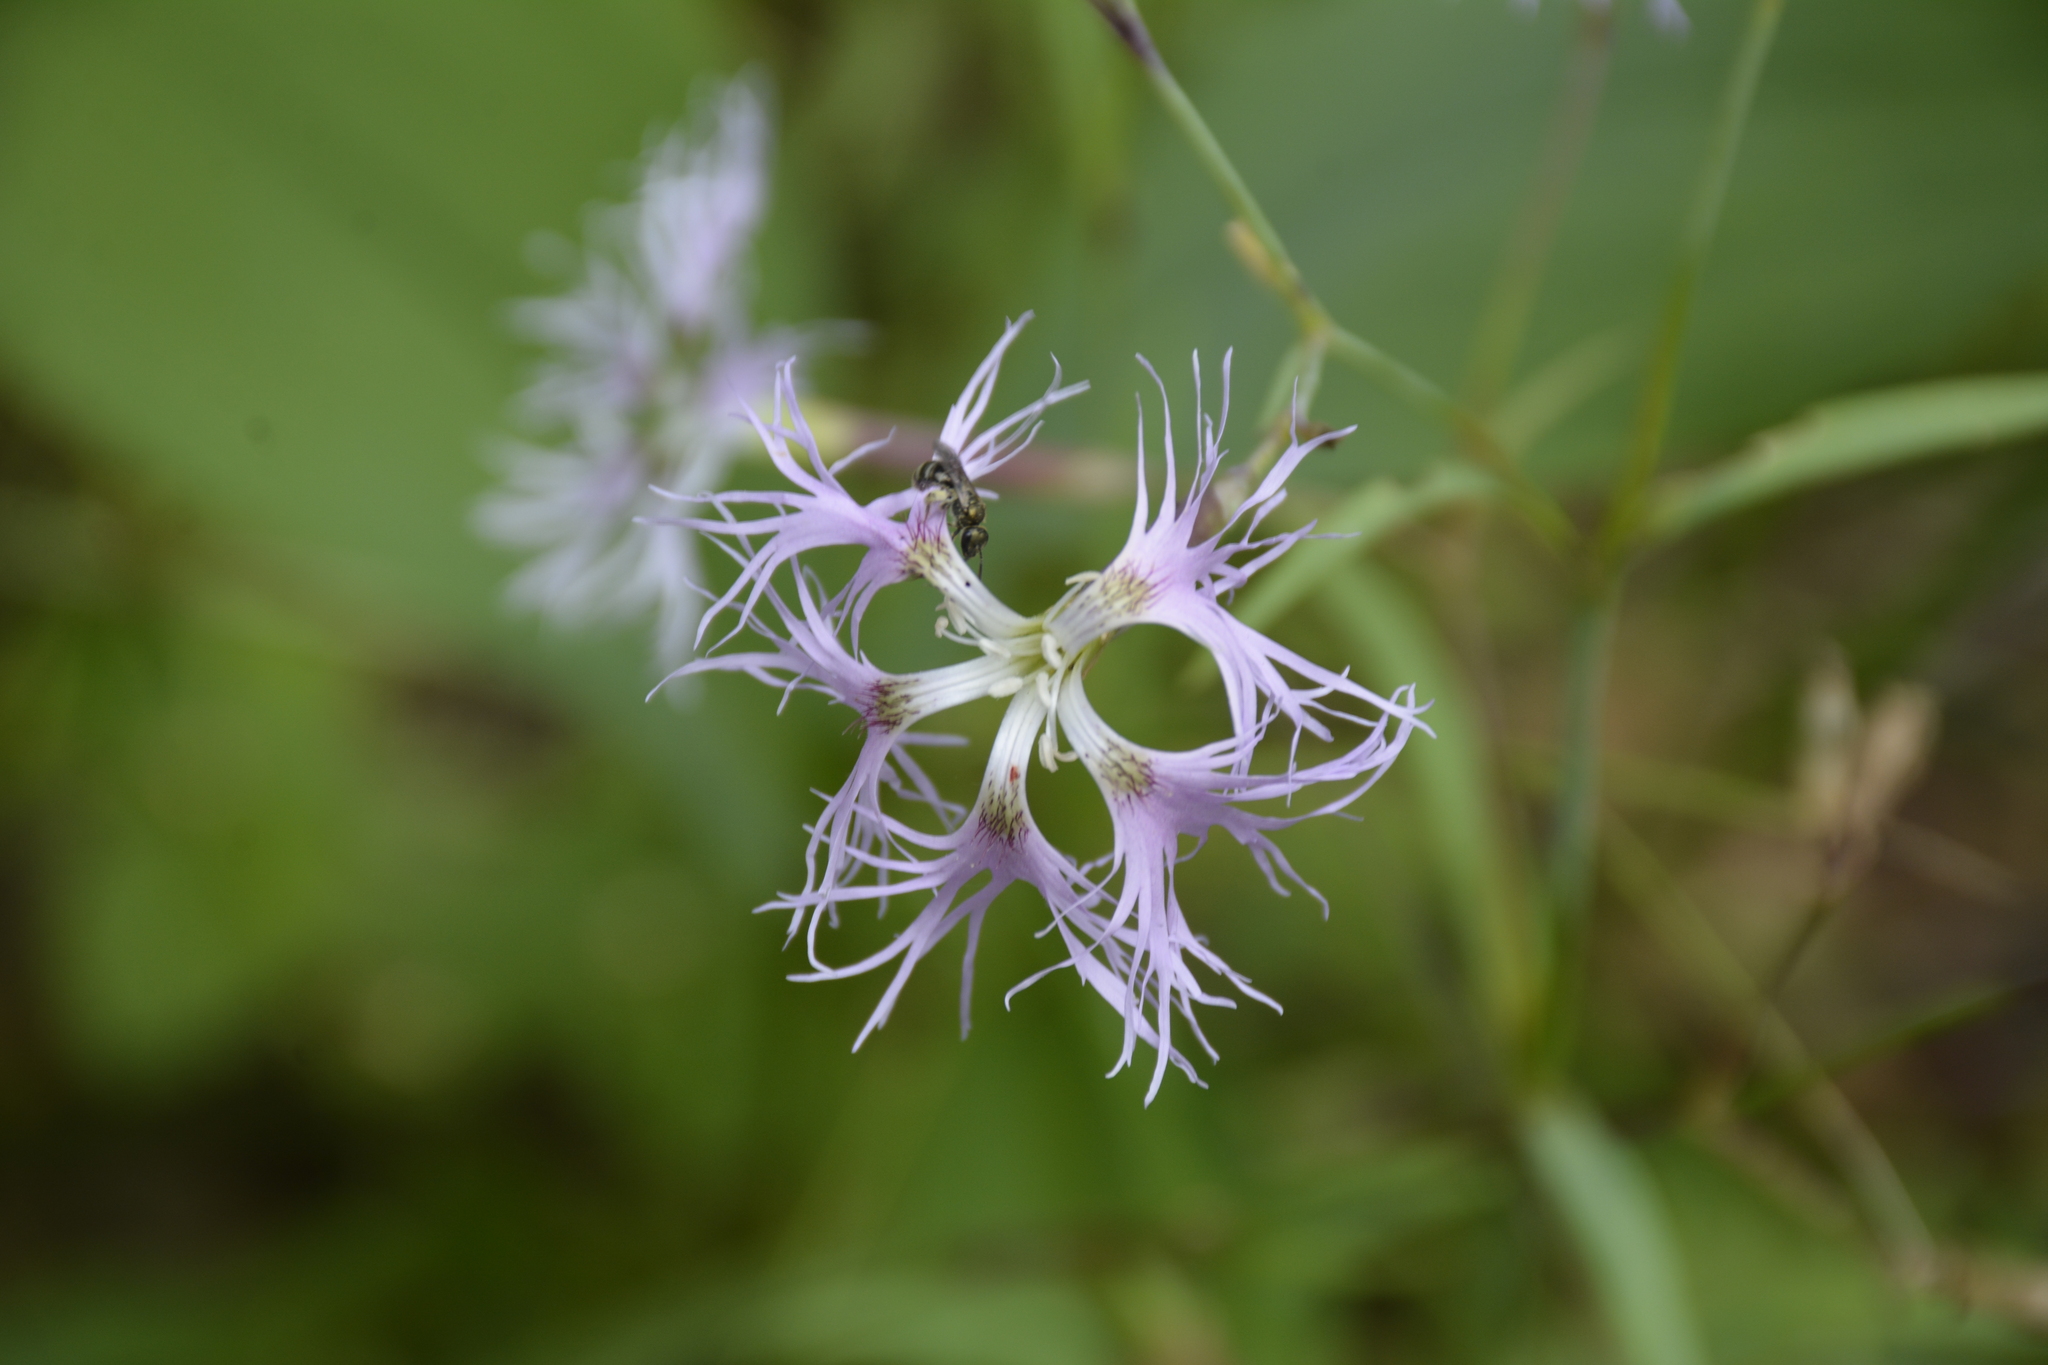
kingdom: Plantae
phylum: Tracheophyta
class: Magnoliopsida
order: Caryophyllales
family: Caryophyllaceae
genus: Dianthus
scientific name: Dianthus superbus
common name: Fringed pink
